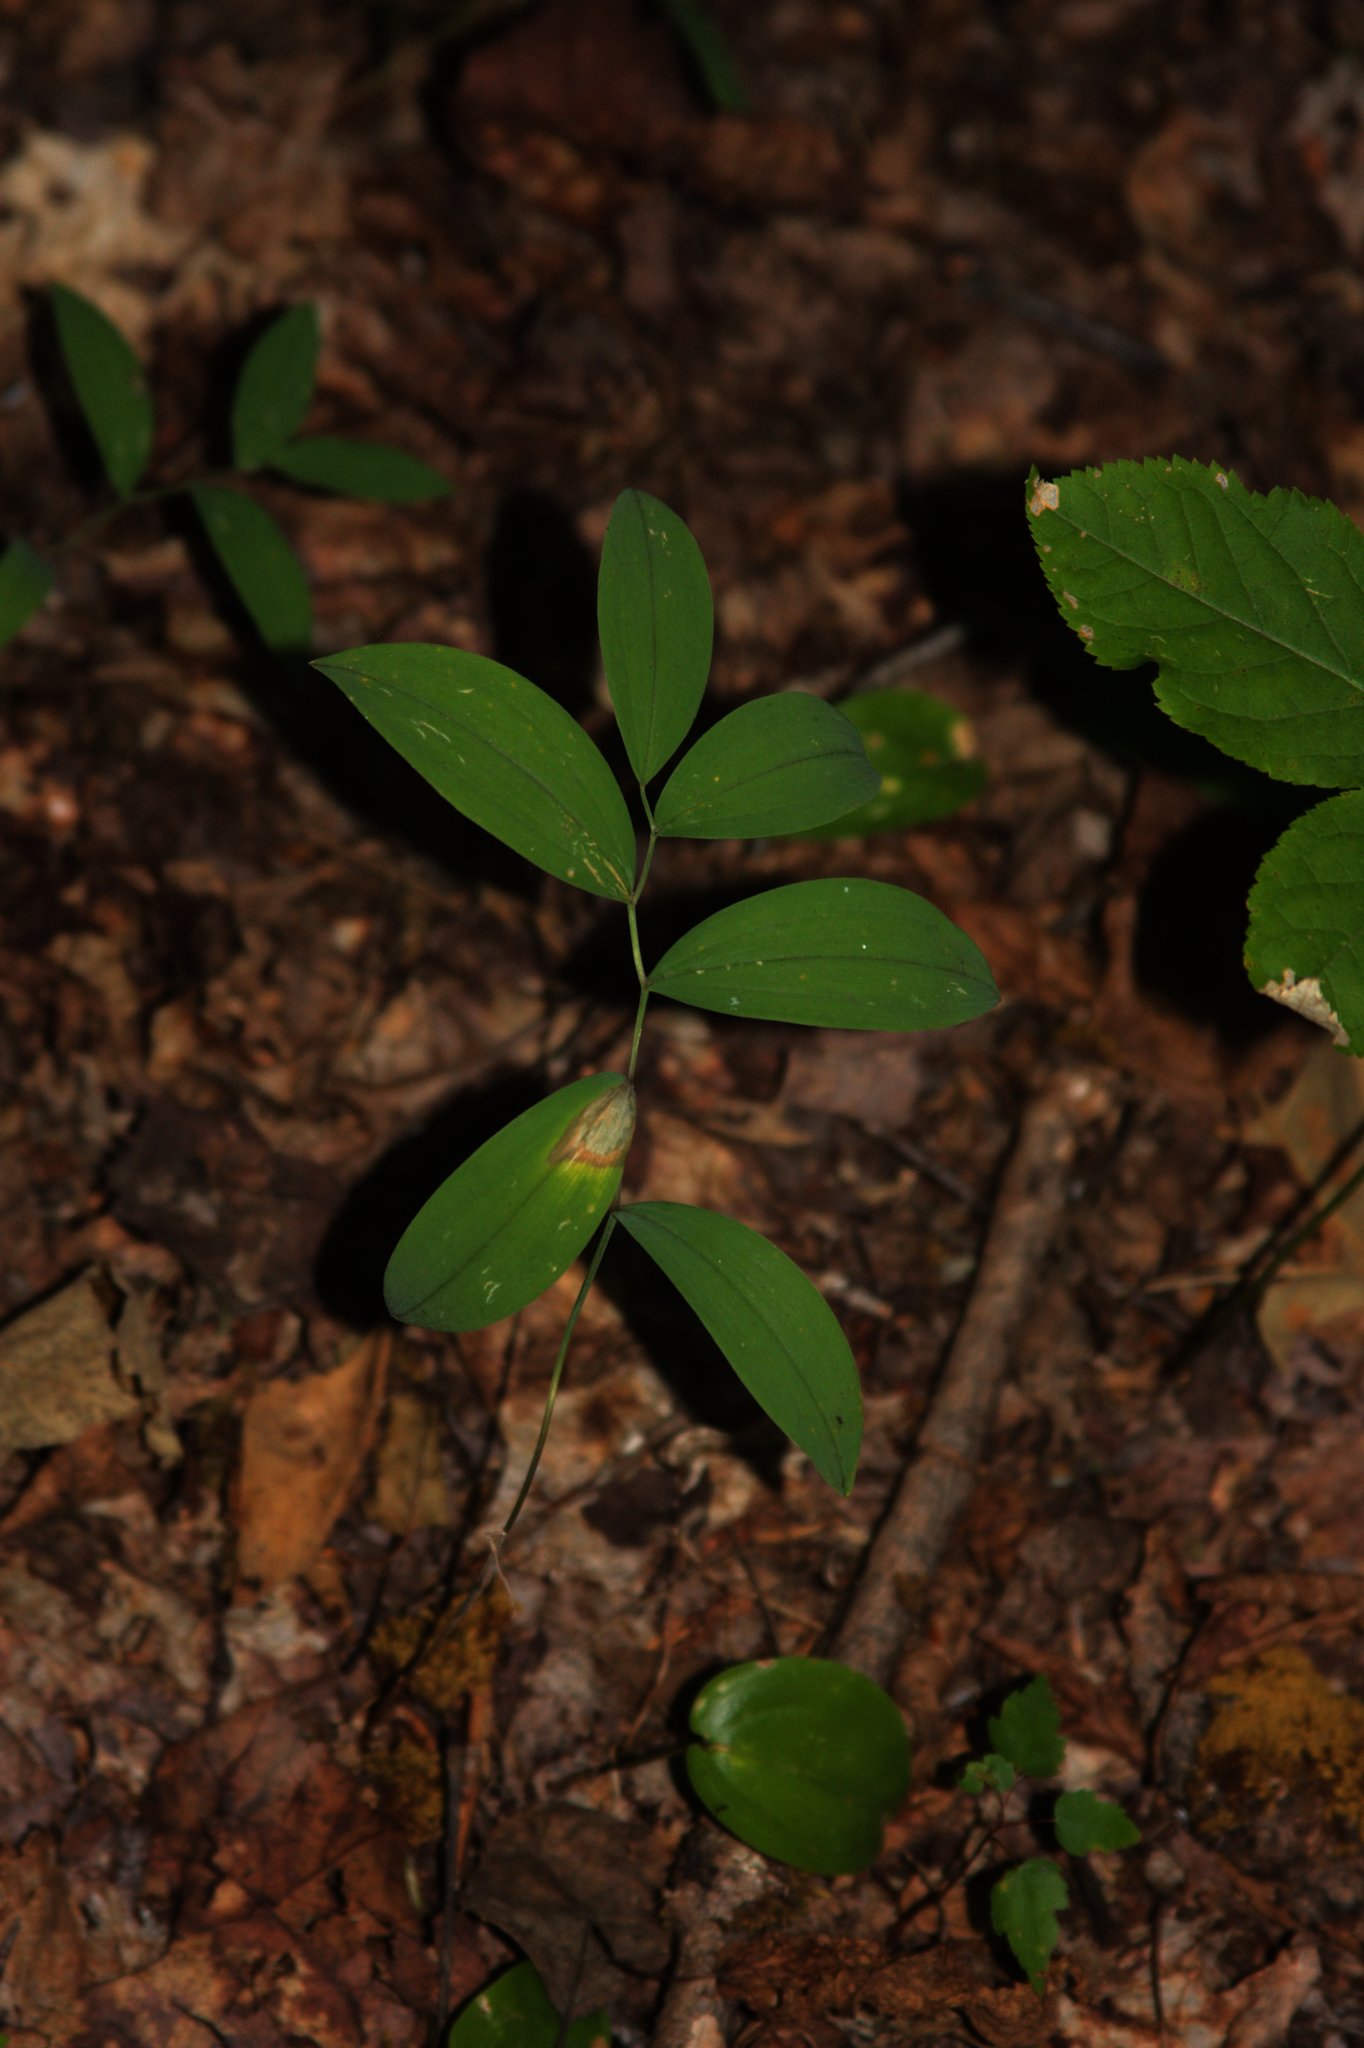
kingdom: Plantae
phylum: Tracheophyta
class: Liliopsida
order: Asparagales
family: Asparagaceae
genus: Maianthemum
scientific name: Maianthemum canadense
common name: False lily-of-the-valley
